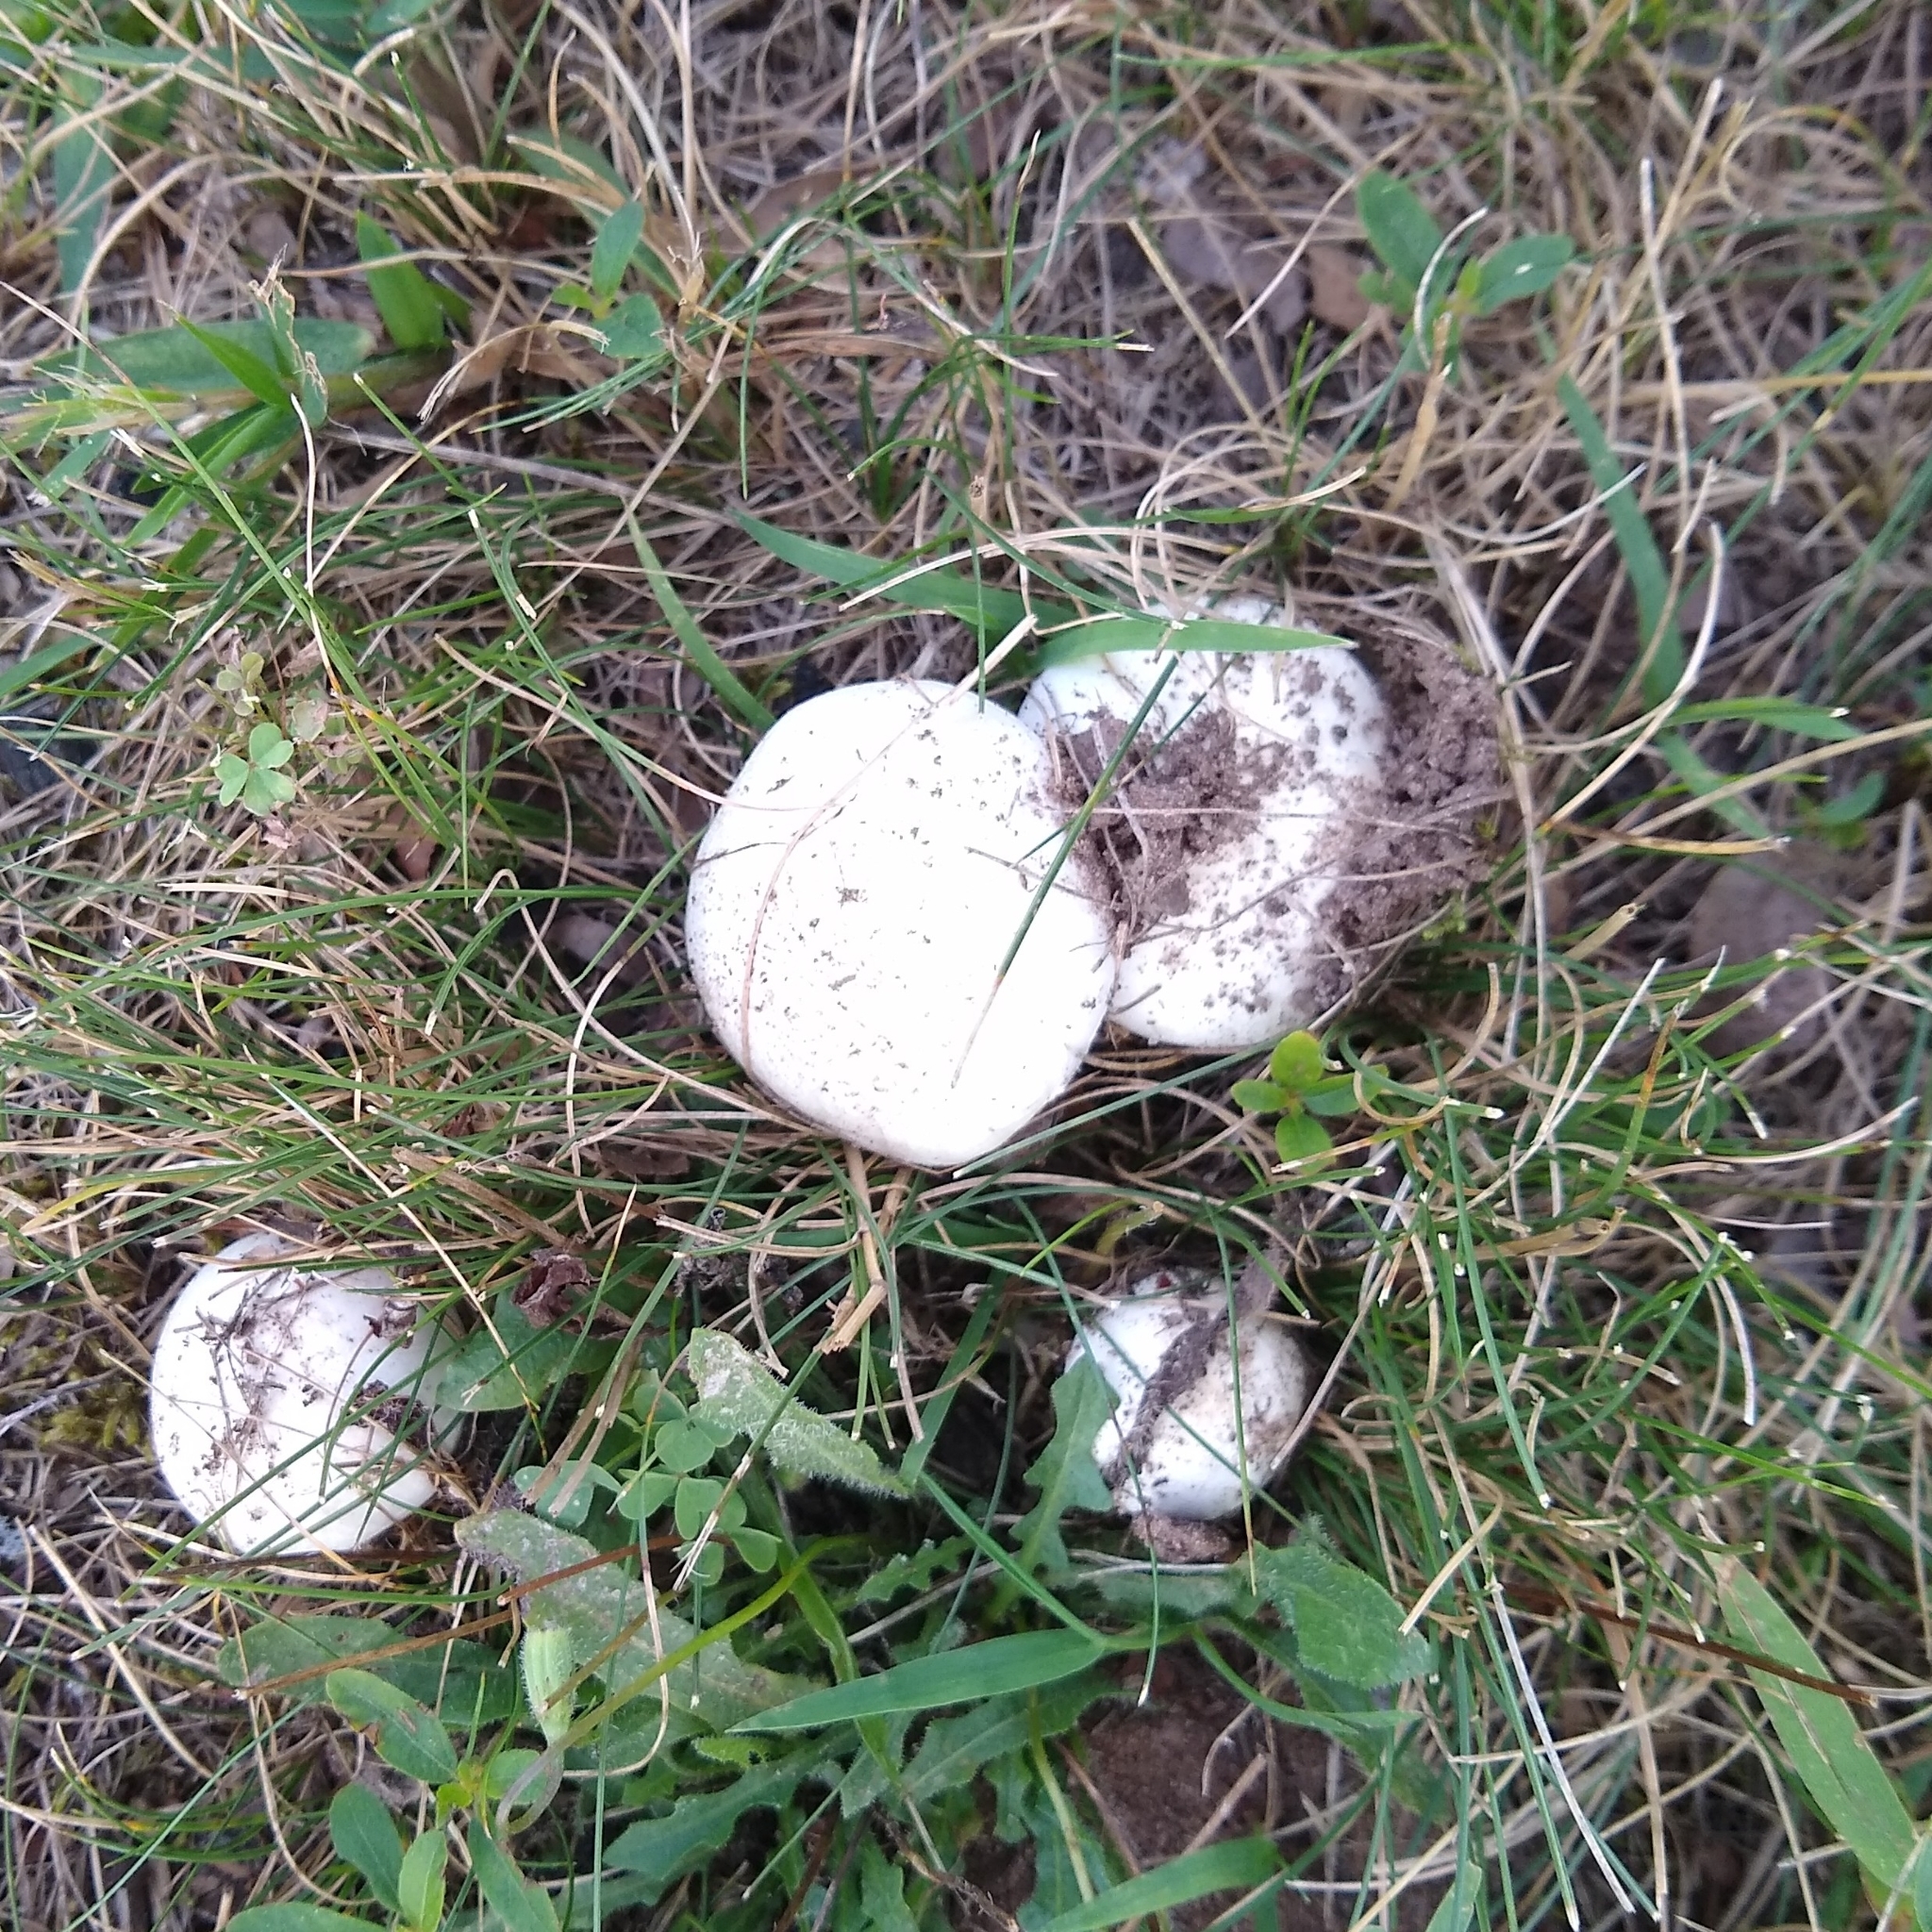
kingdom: Fungi
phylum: Basidiomycota
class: Agaricomycetes
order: Agaricales
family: Agaricaceae
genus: Agaricus
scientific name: Agaricus campestris
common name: Field mushroom
